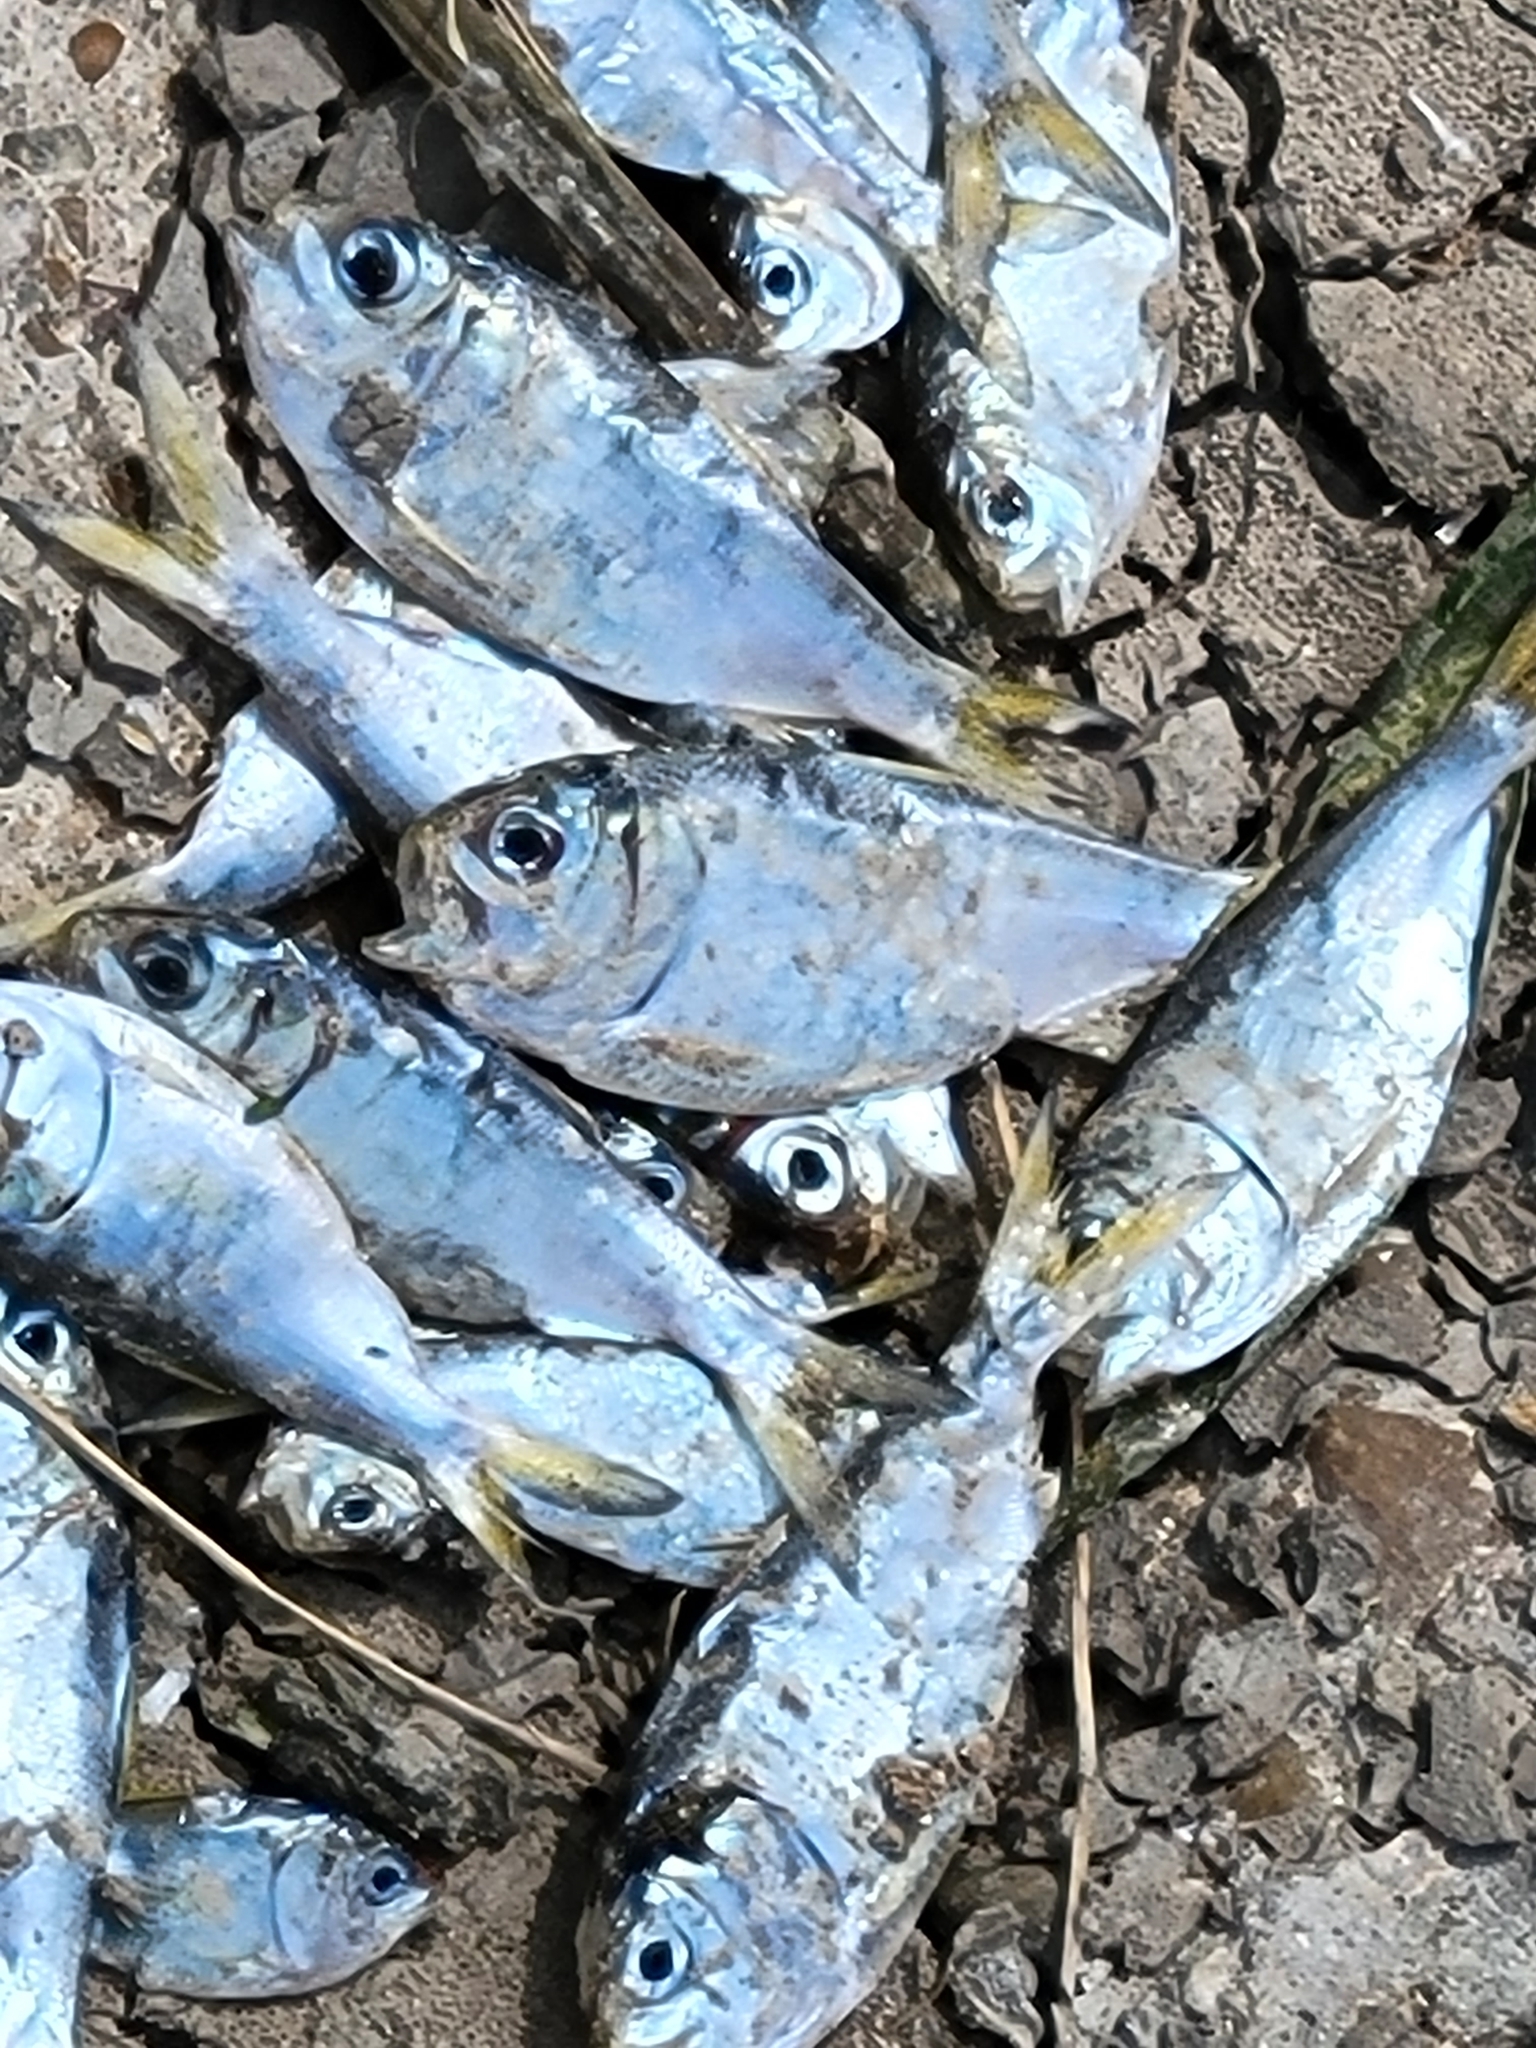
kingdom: Animalia
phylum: Chordata
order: Clupeiformes
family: Clupeidae
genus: Brevoortia
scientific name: Brevoortia patronus
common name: Gulf menhaden
